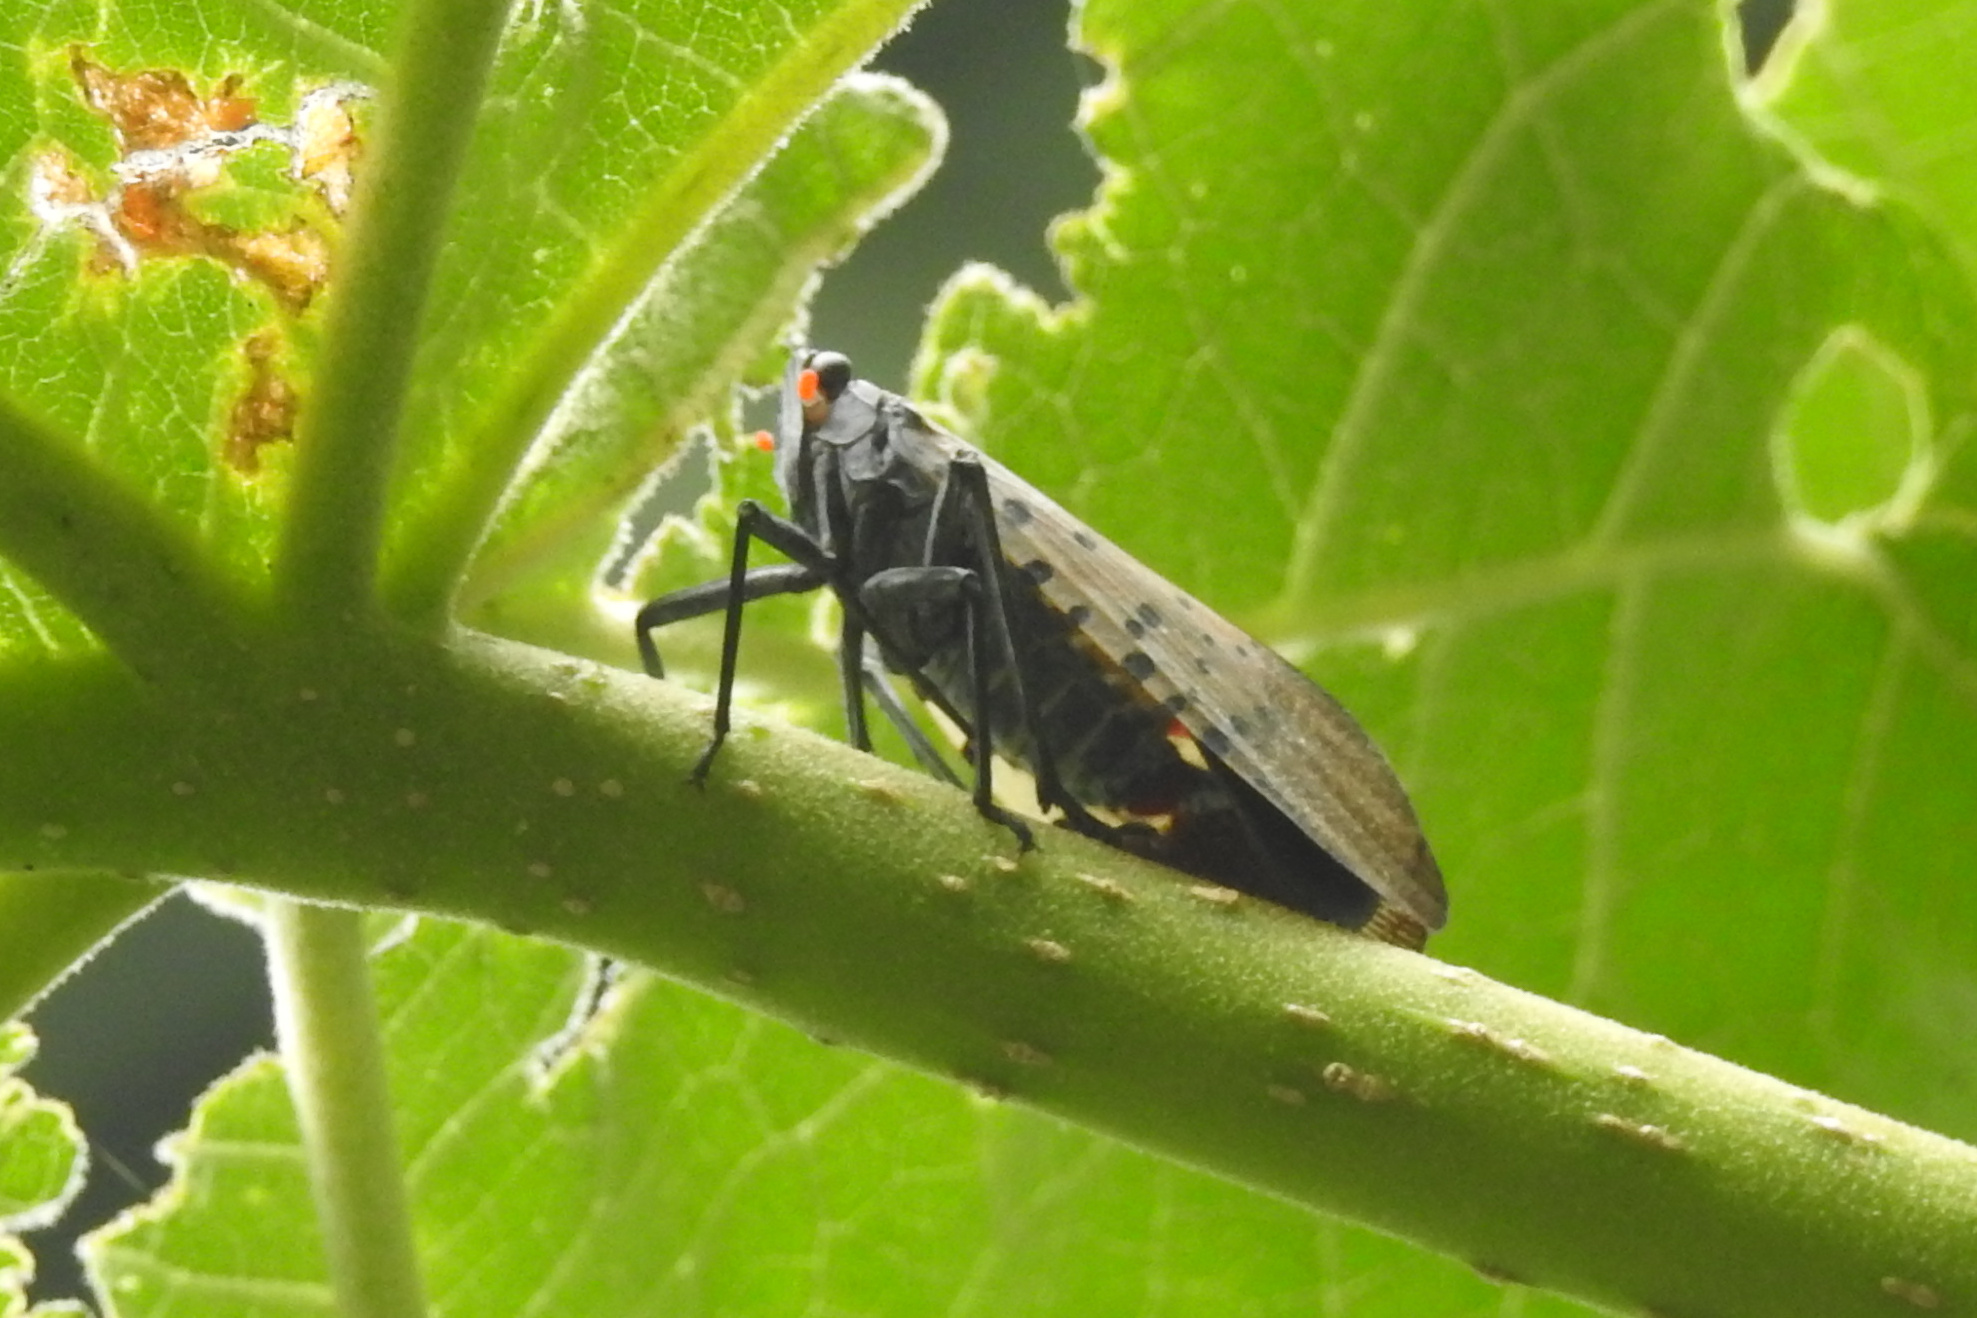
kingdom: Animalia
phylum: Arthropoda
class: Insecta
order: Hemiptera
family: Fulgoridae
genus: Lycorma
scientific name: Lycorma delicatula
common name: Spotted lanternfly
